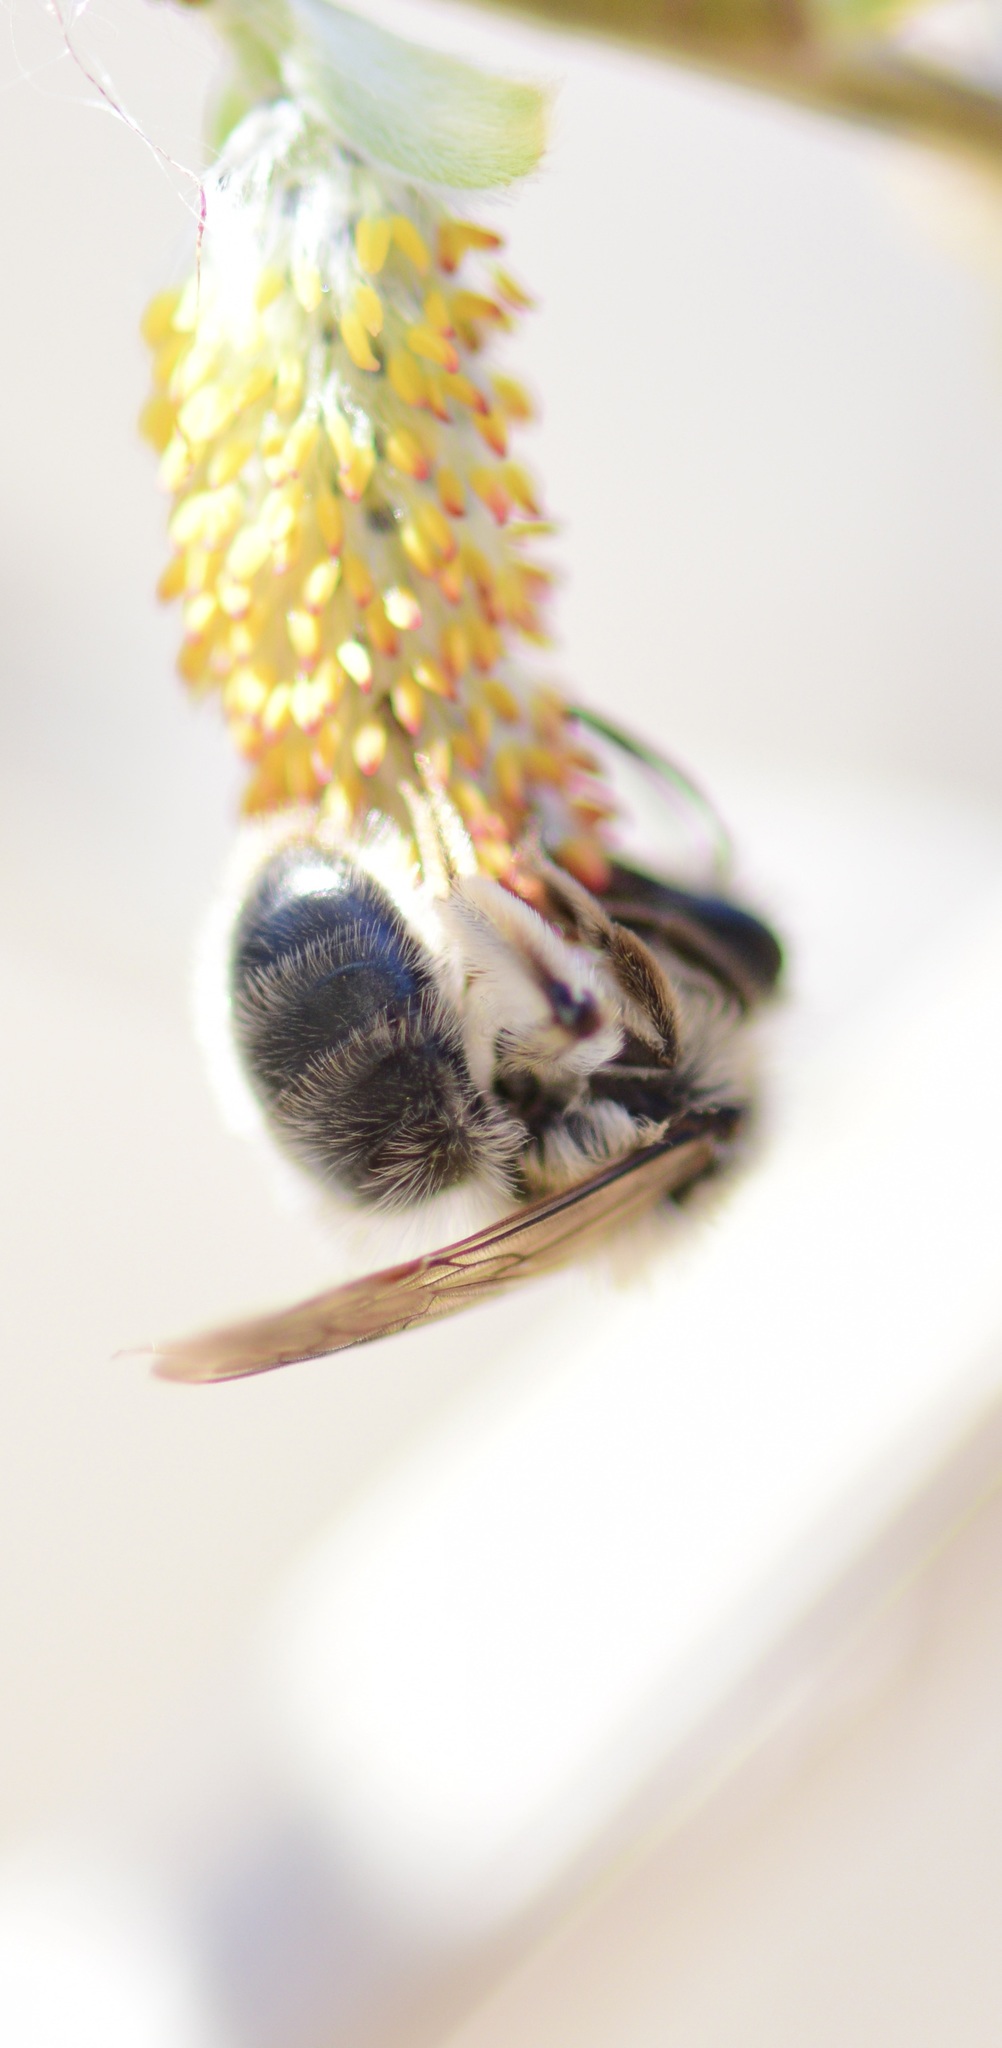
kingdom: Animalia
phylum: Arthropoda
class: Insecta
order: Hymenoptera
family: Andrenidae
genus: Andrena
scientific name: Andrena frigida
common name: Frigid mining bee
